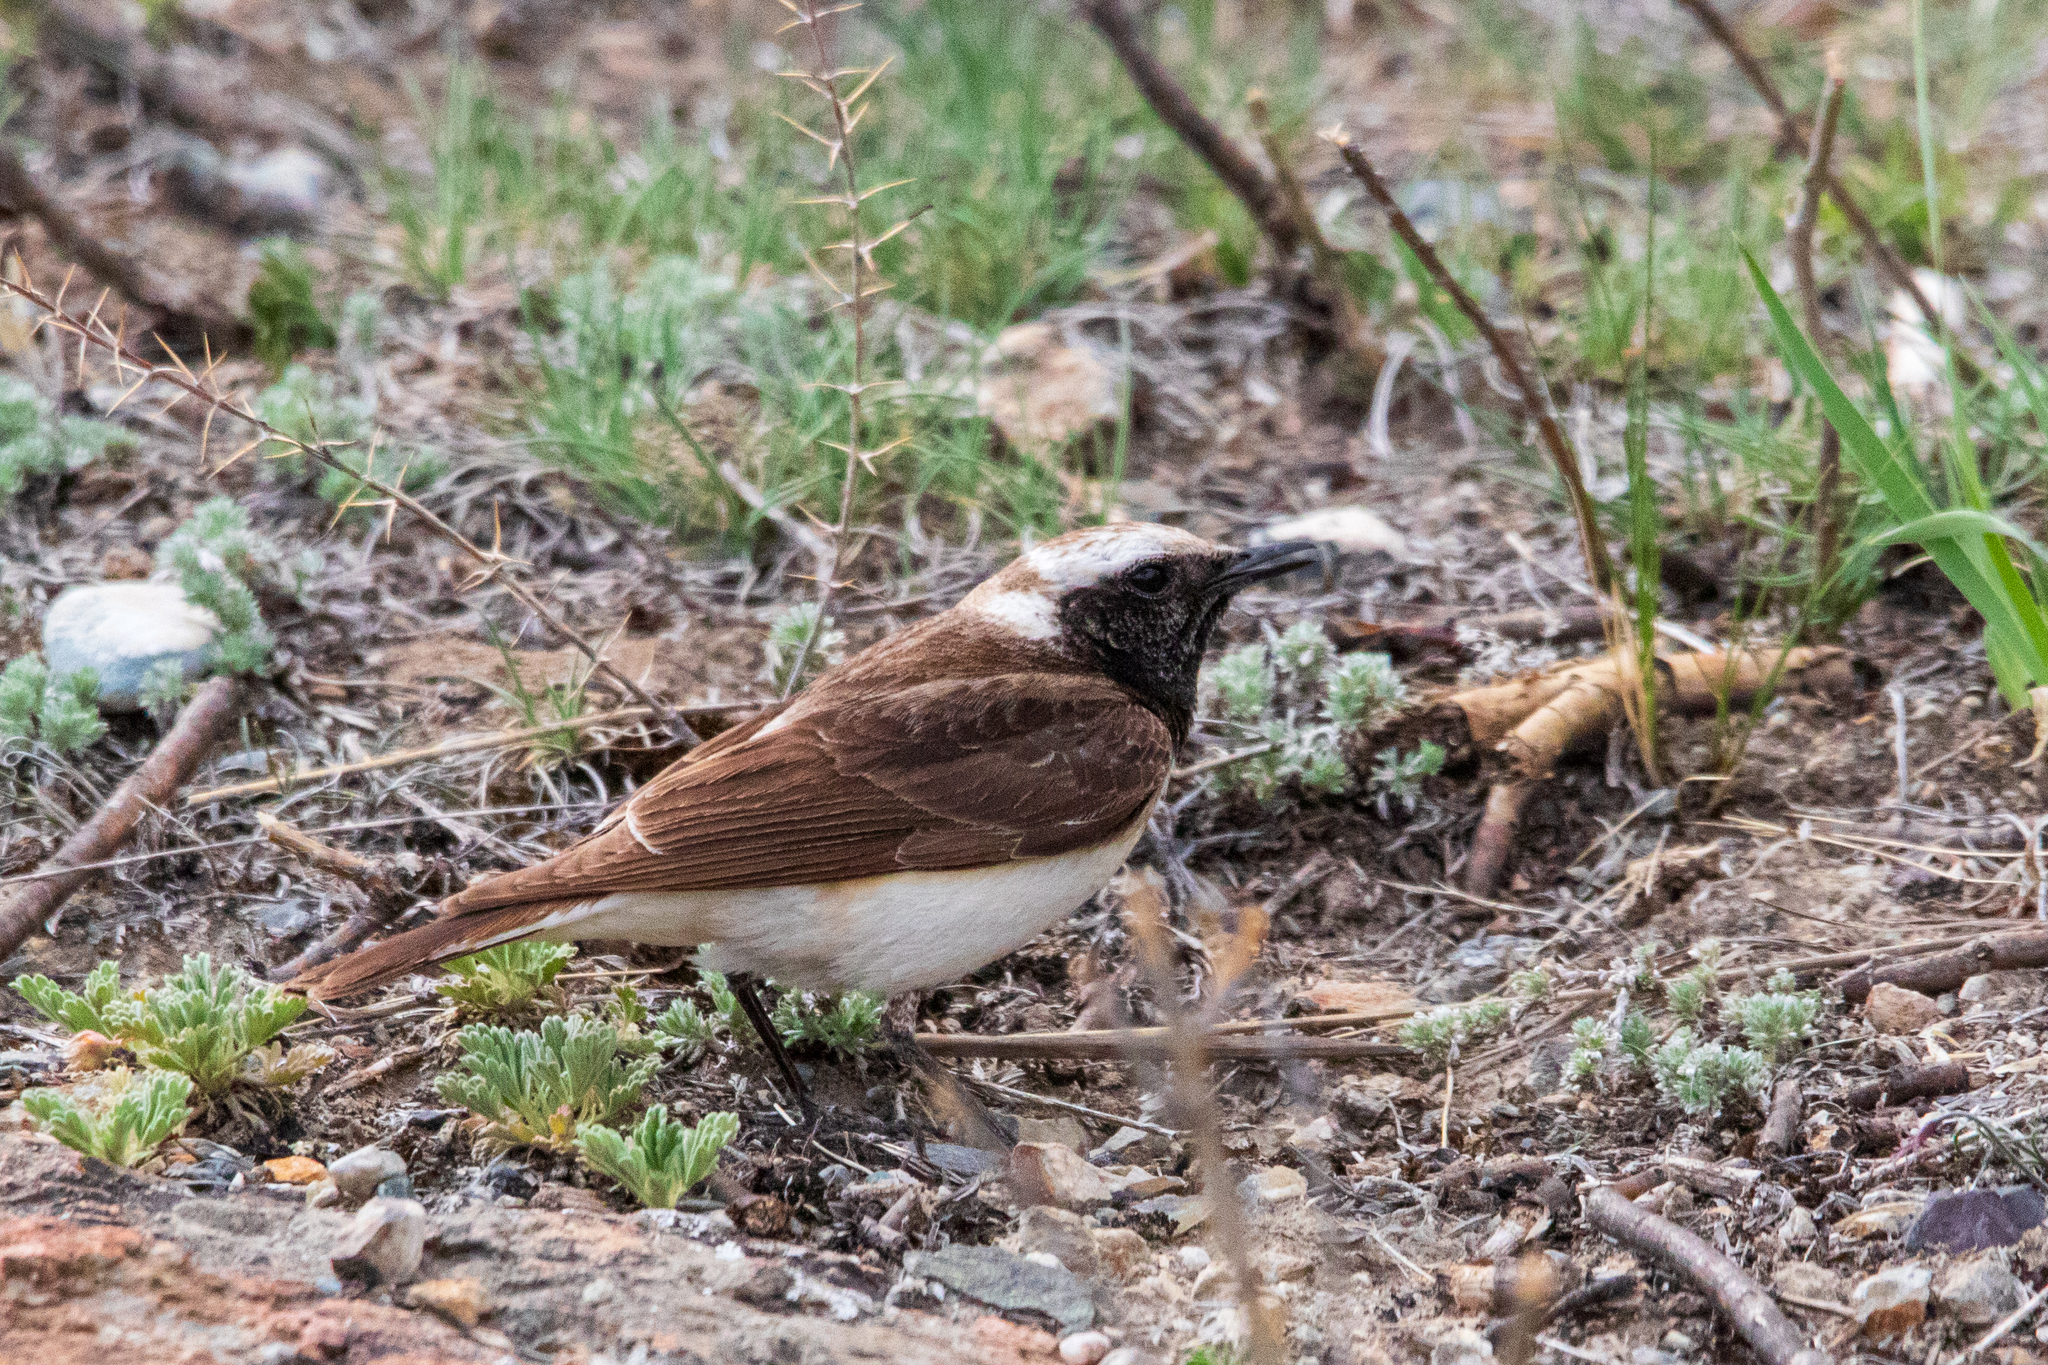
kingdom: Animalia
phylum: Chordata
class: Aves
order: Passeriformes
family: Muscicapidae
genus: Oenanthe
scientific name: Oenanthe pleschanka
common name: Pied wheatear
